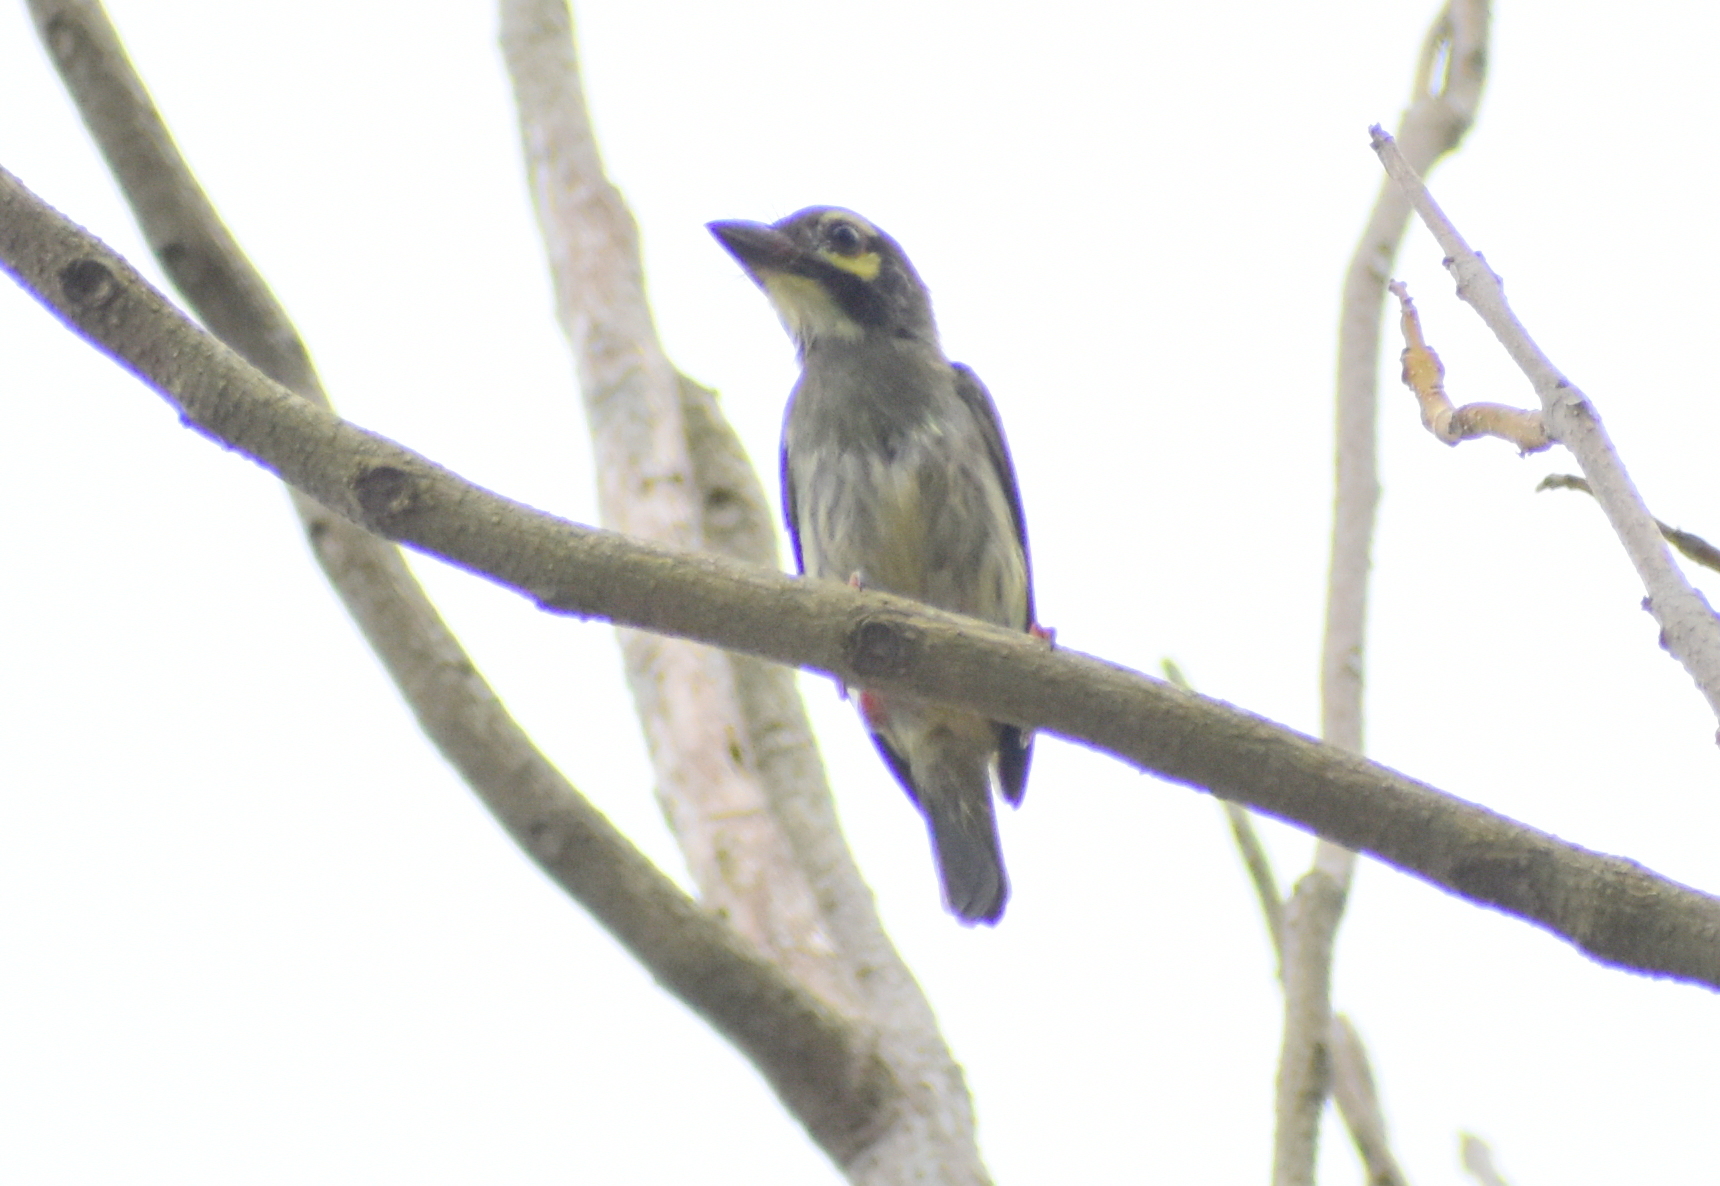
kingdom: Animalia
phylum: Chordata
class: Aves
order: Piciformes
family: Megalaimidae
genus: Psilopogon
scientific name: Psilopogon haemacephalus
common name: Coppersmith barbet
